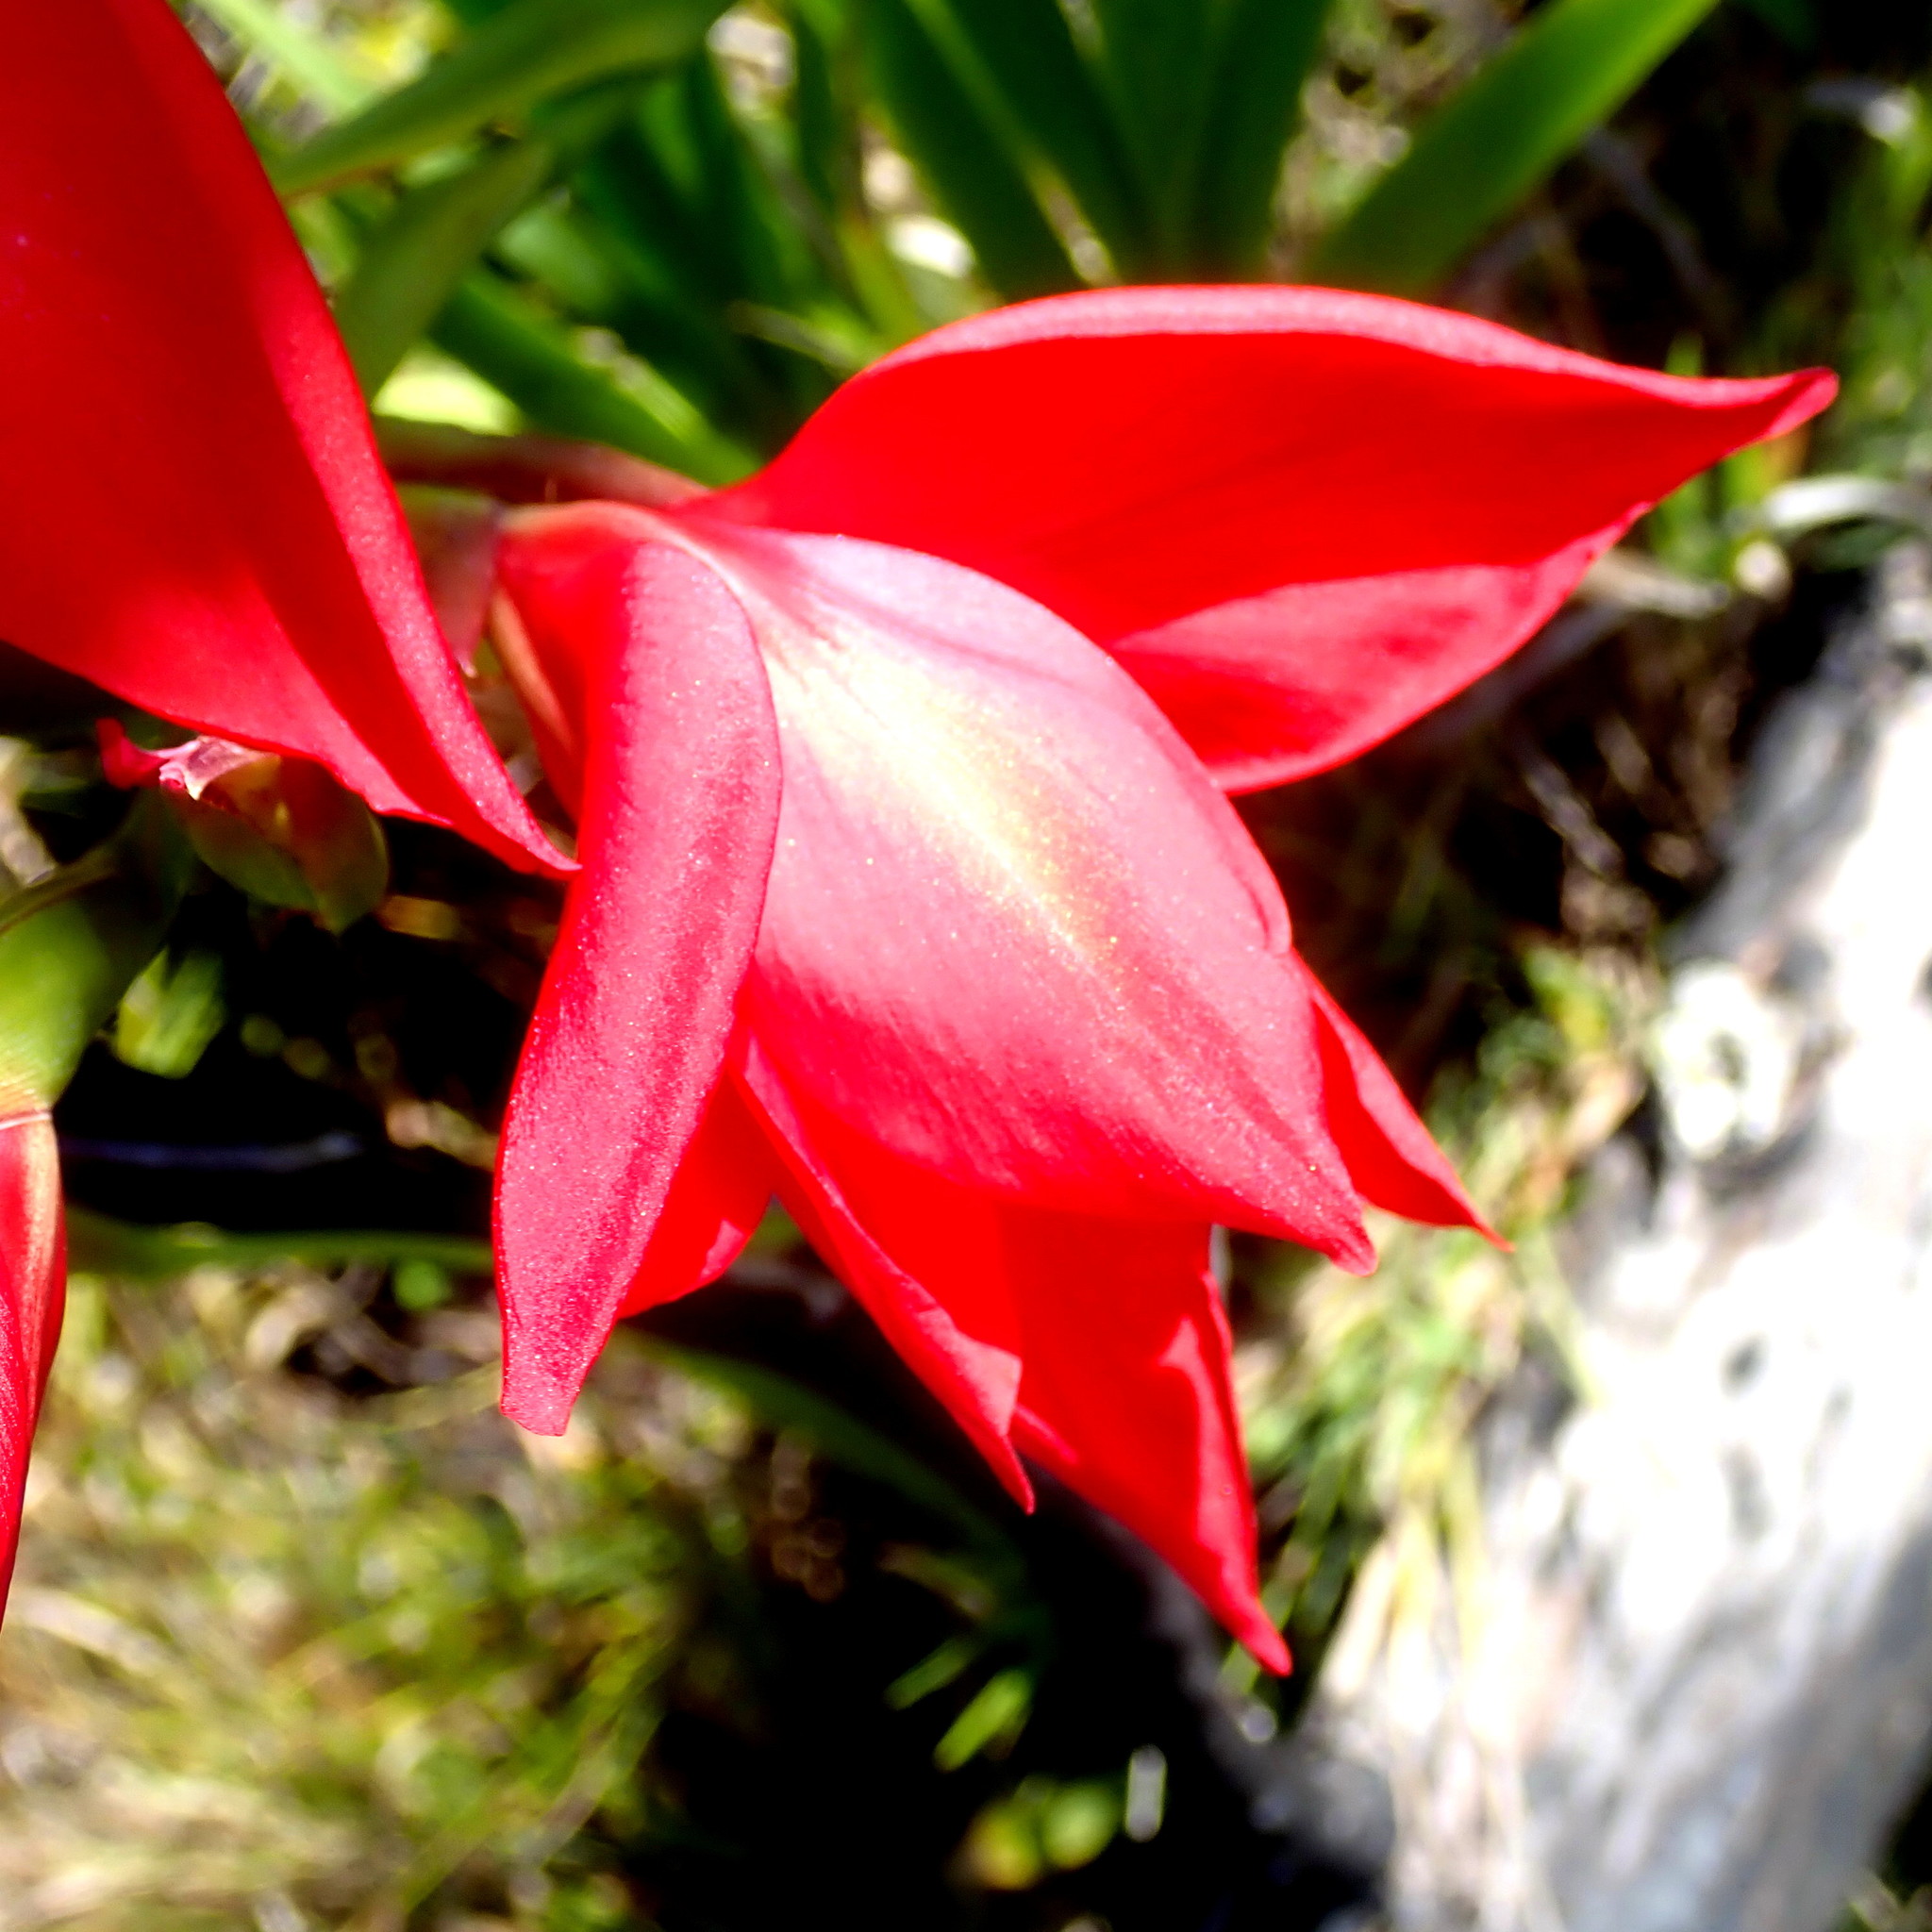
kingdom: Plantae
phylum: Tracheophyta
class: Liliopsida
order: Asparagales
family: Iridaceae
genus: Gladiolus
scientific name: Gladiolus sempervirens
